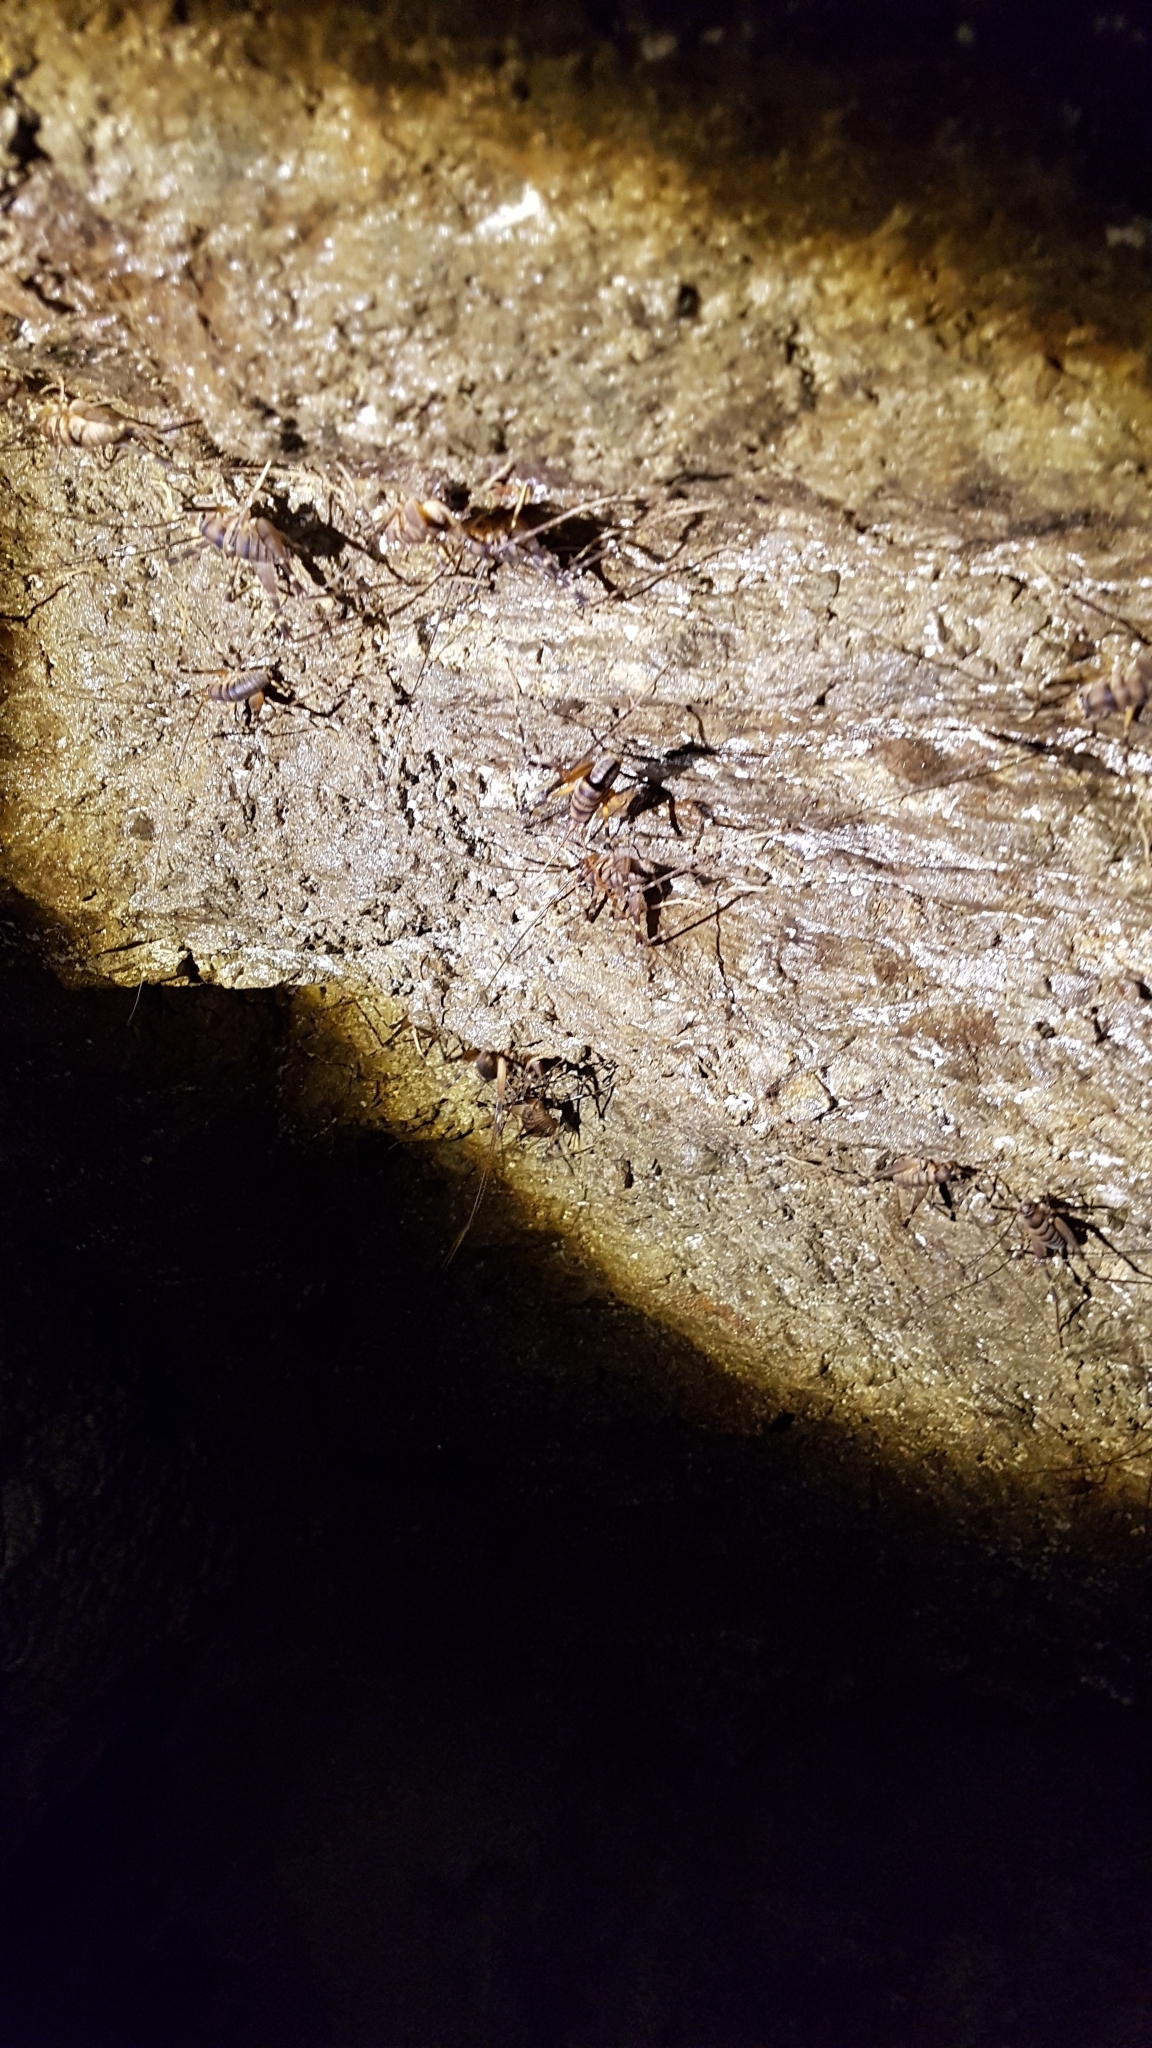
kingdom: Animalia
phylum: Arthropoda
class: Insecta
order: Orthoptera
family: Rhaphidophoridae
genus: Pachyrhamma
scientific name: Pachyrhamma edwardsii
